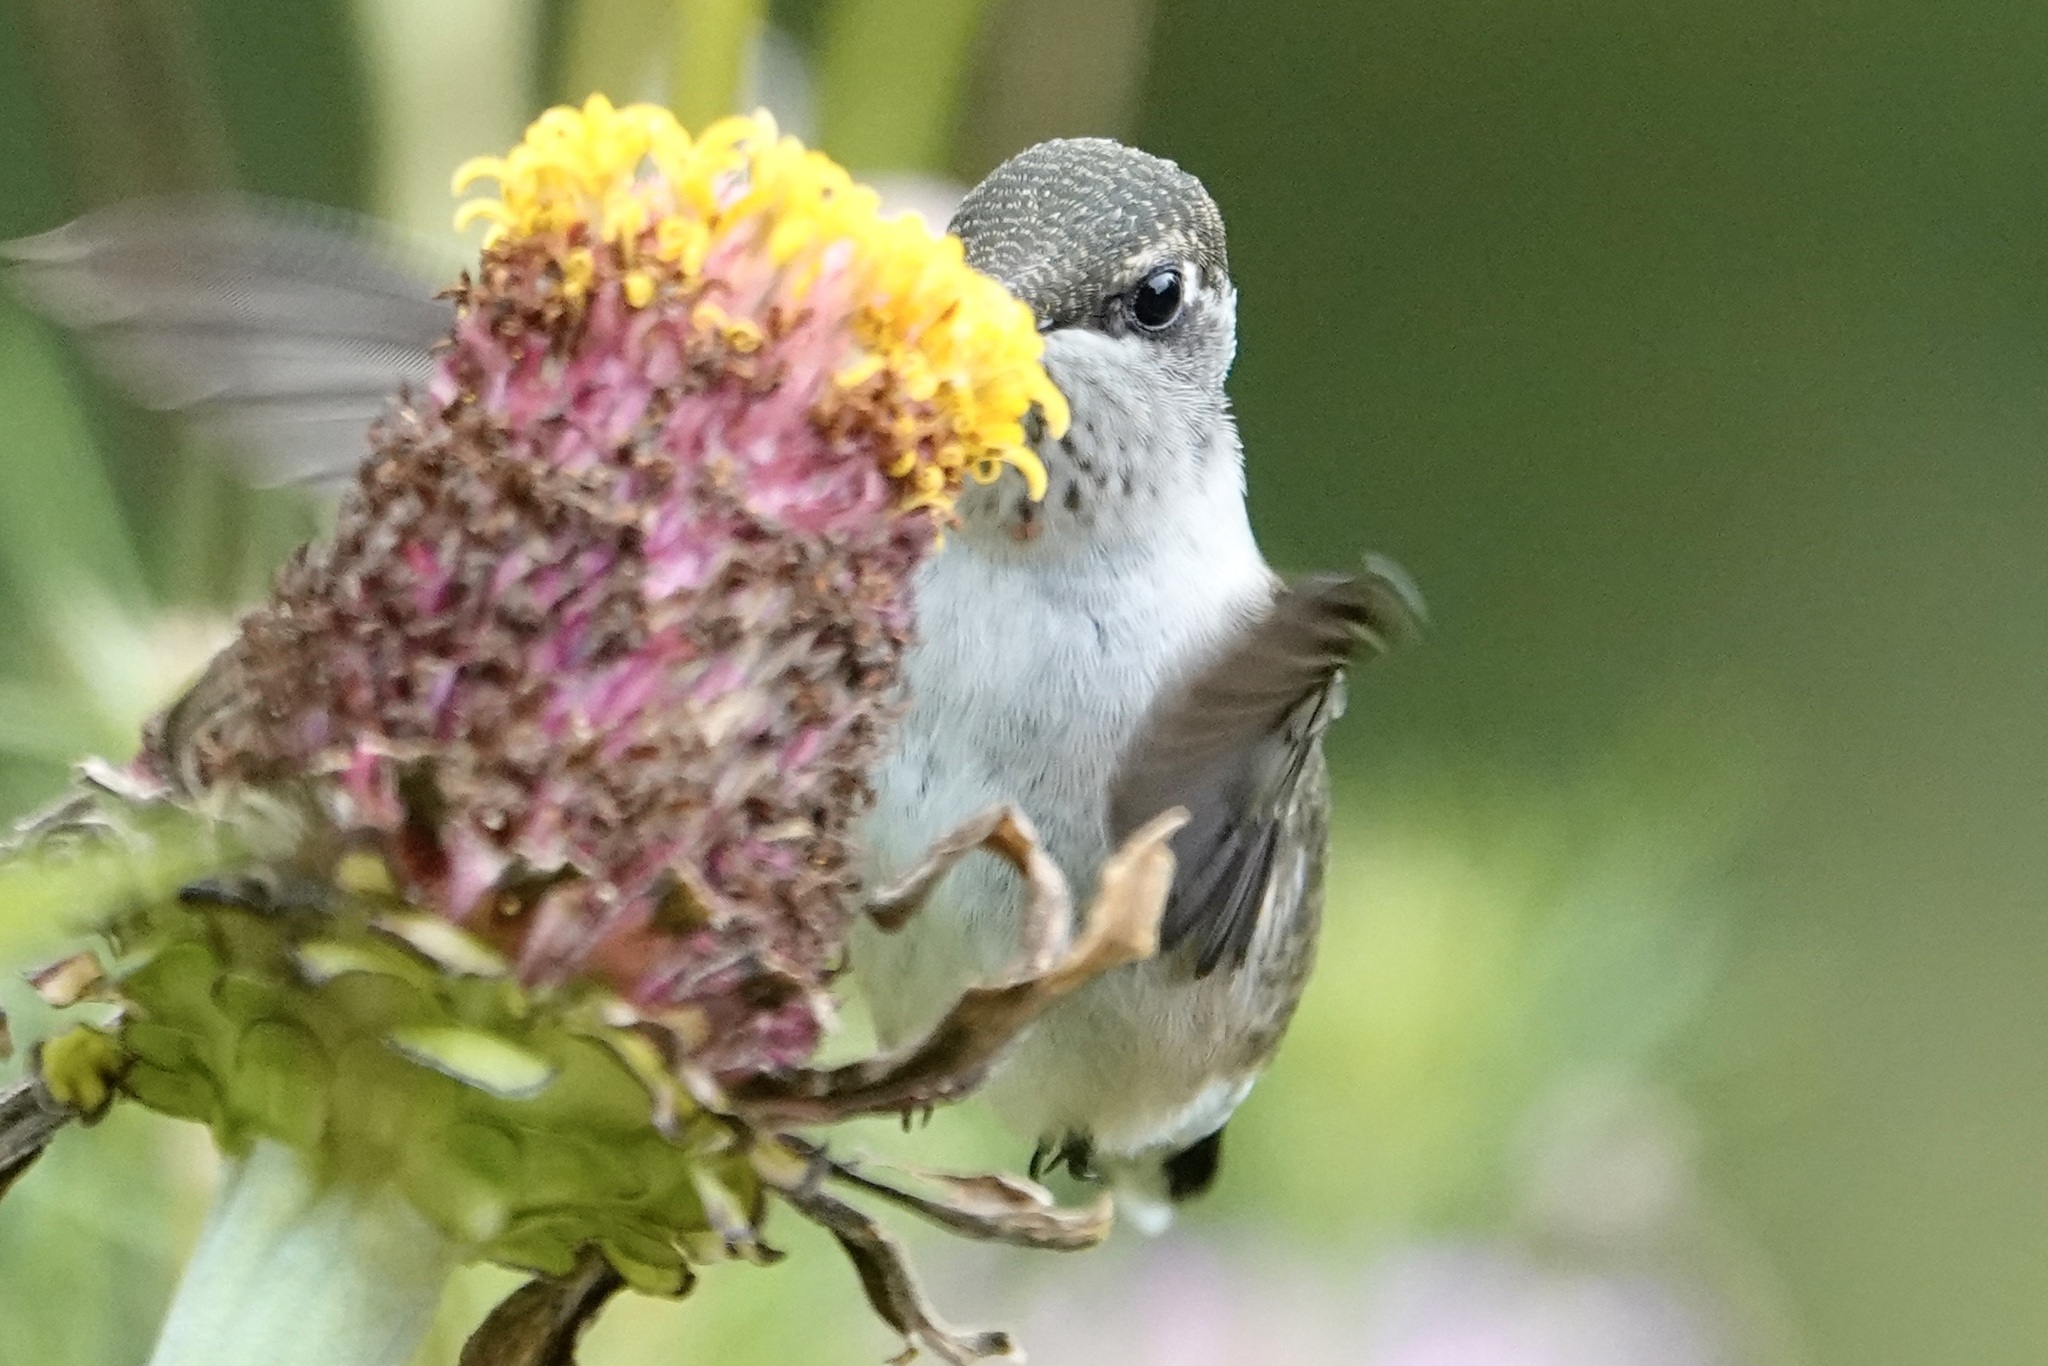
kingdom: Animalia
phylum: Chordata
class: Aves
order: Apodiformes
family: Trochilidae
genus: Archilochus
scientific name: Archilochus colubris
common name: Ruby-throated hummingbird
